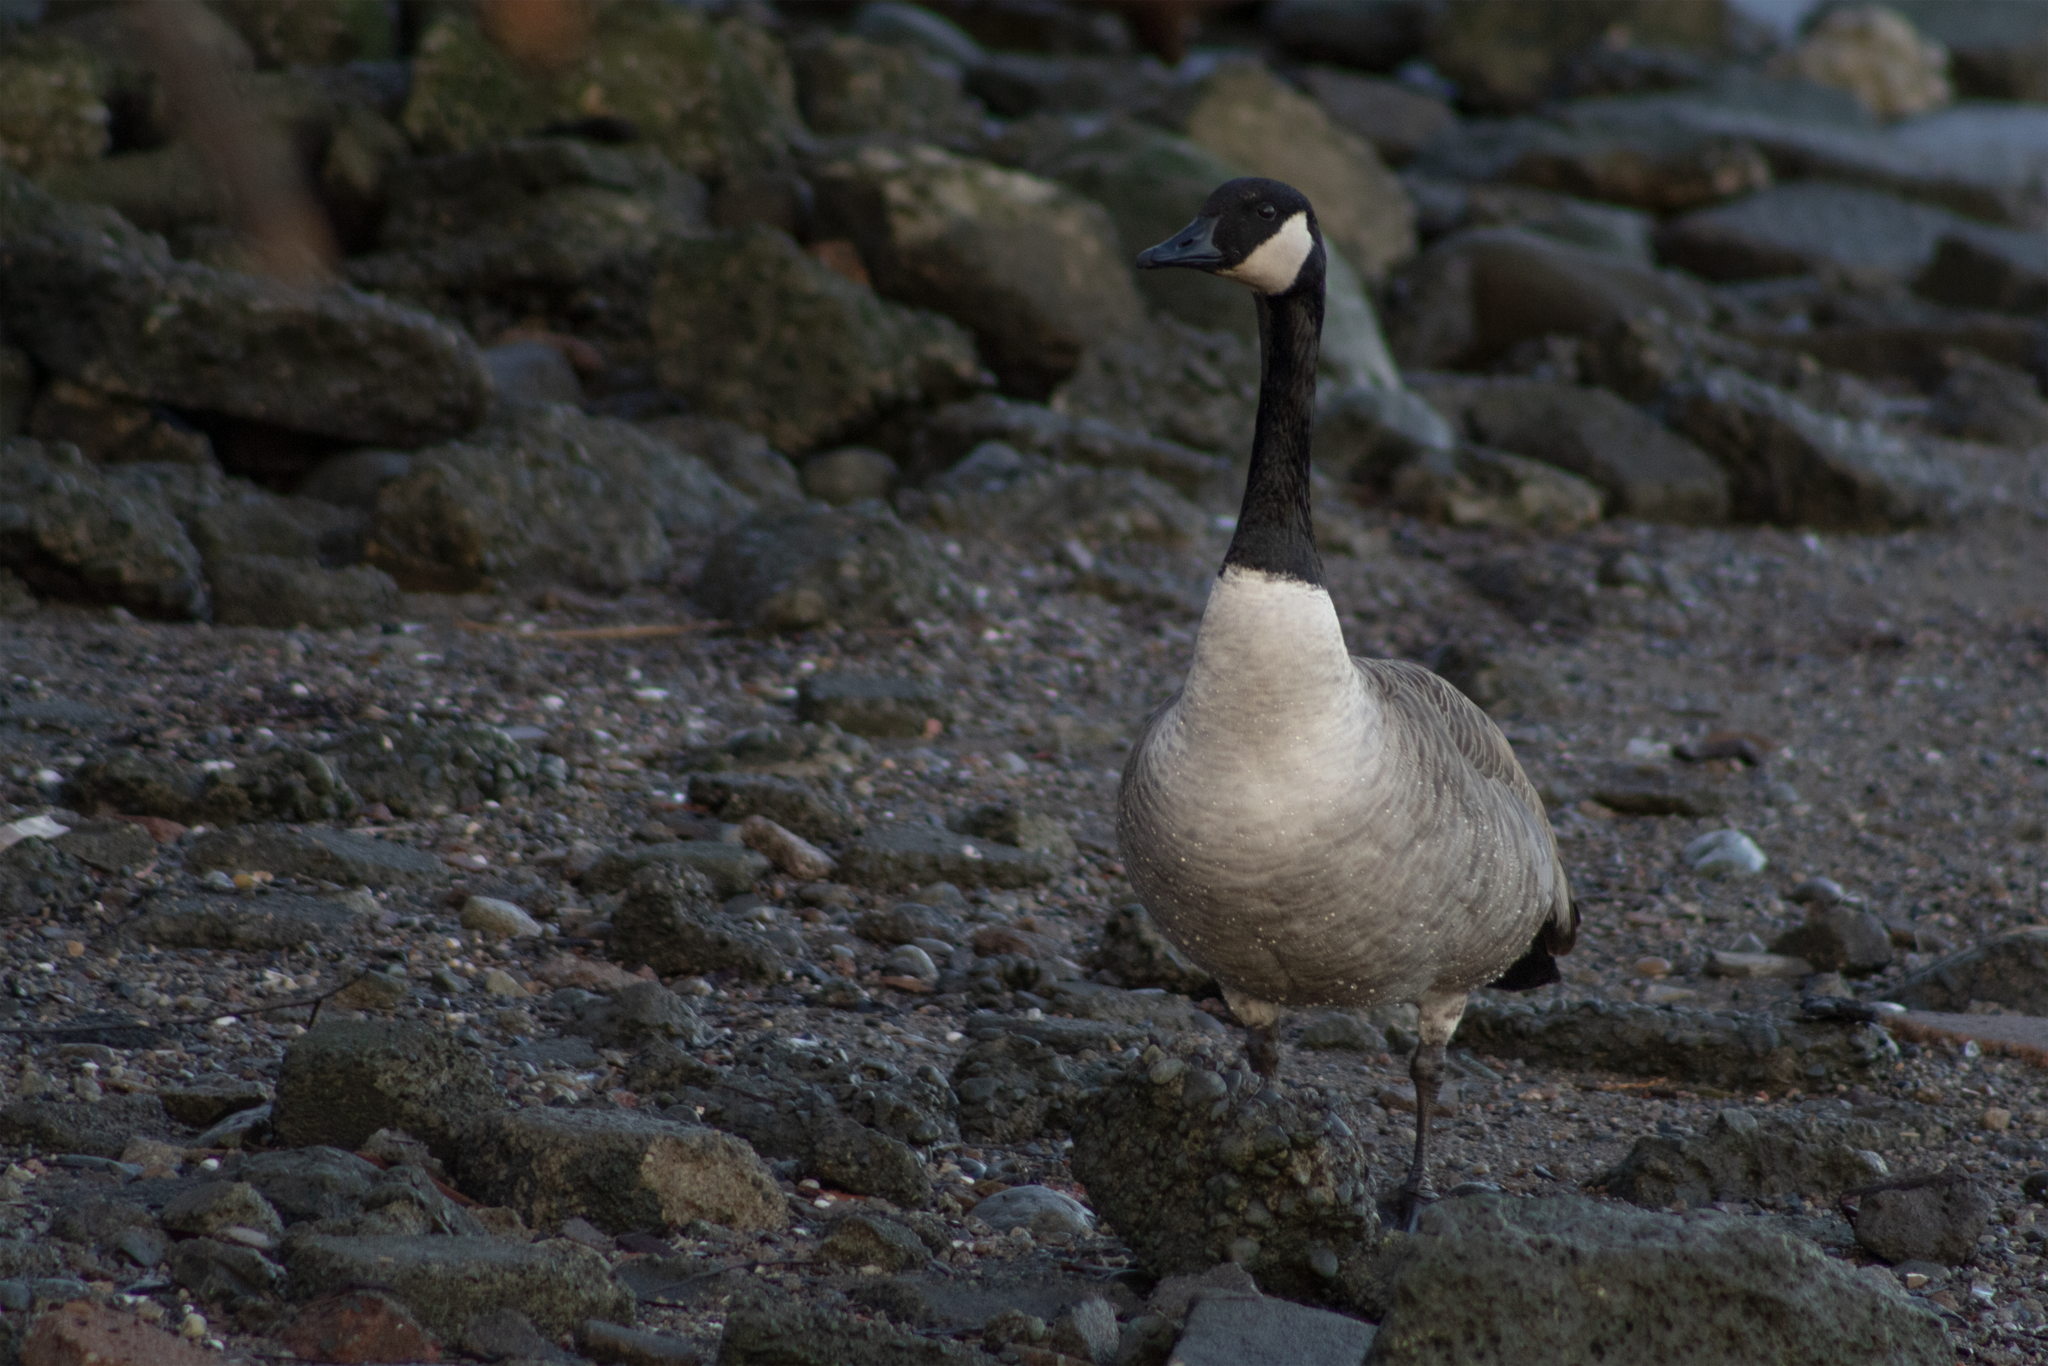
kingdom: Animalia
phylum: Chordata
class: Aves
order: Anseriformes
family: Anatidae
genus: Branta
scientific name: Branta canadensis
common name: Canada goose
